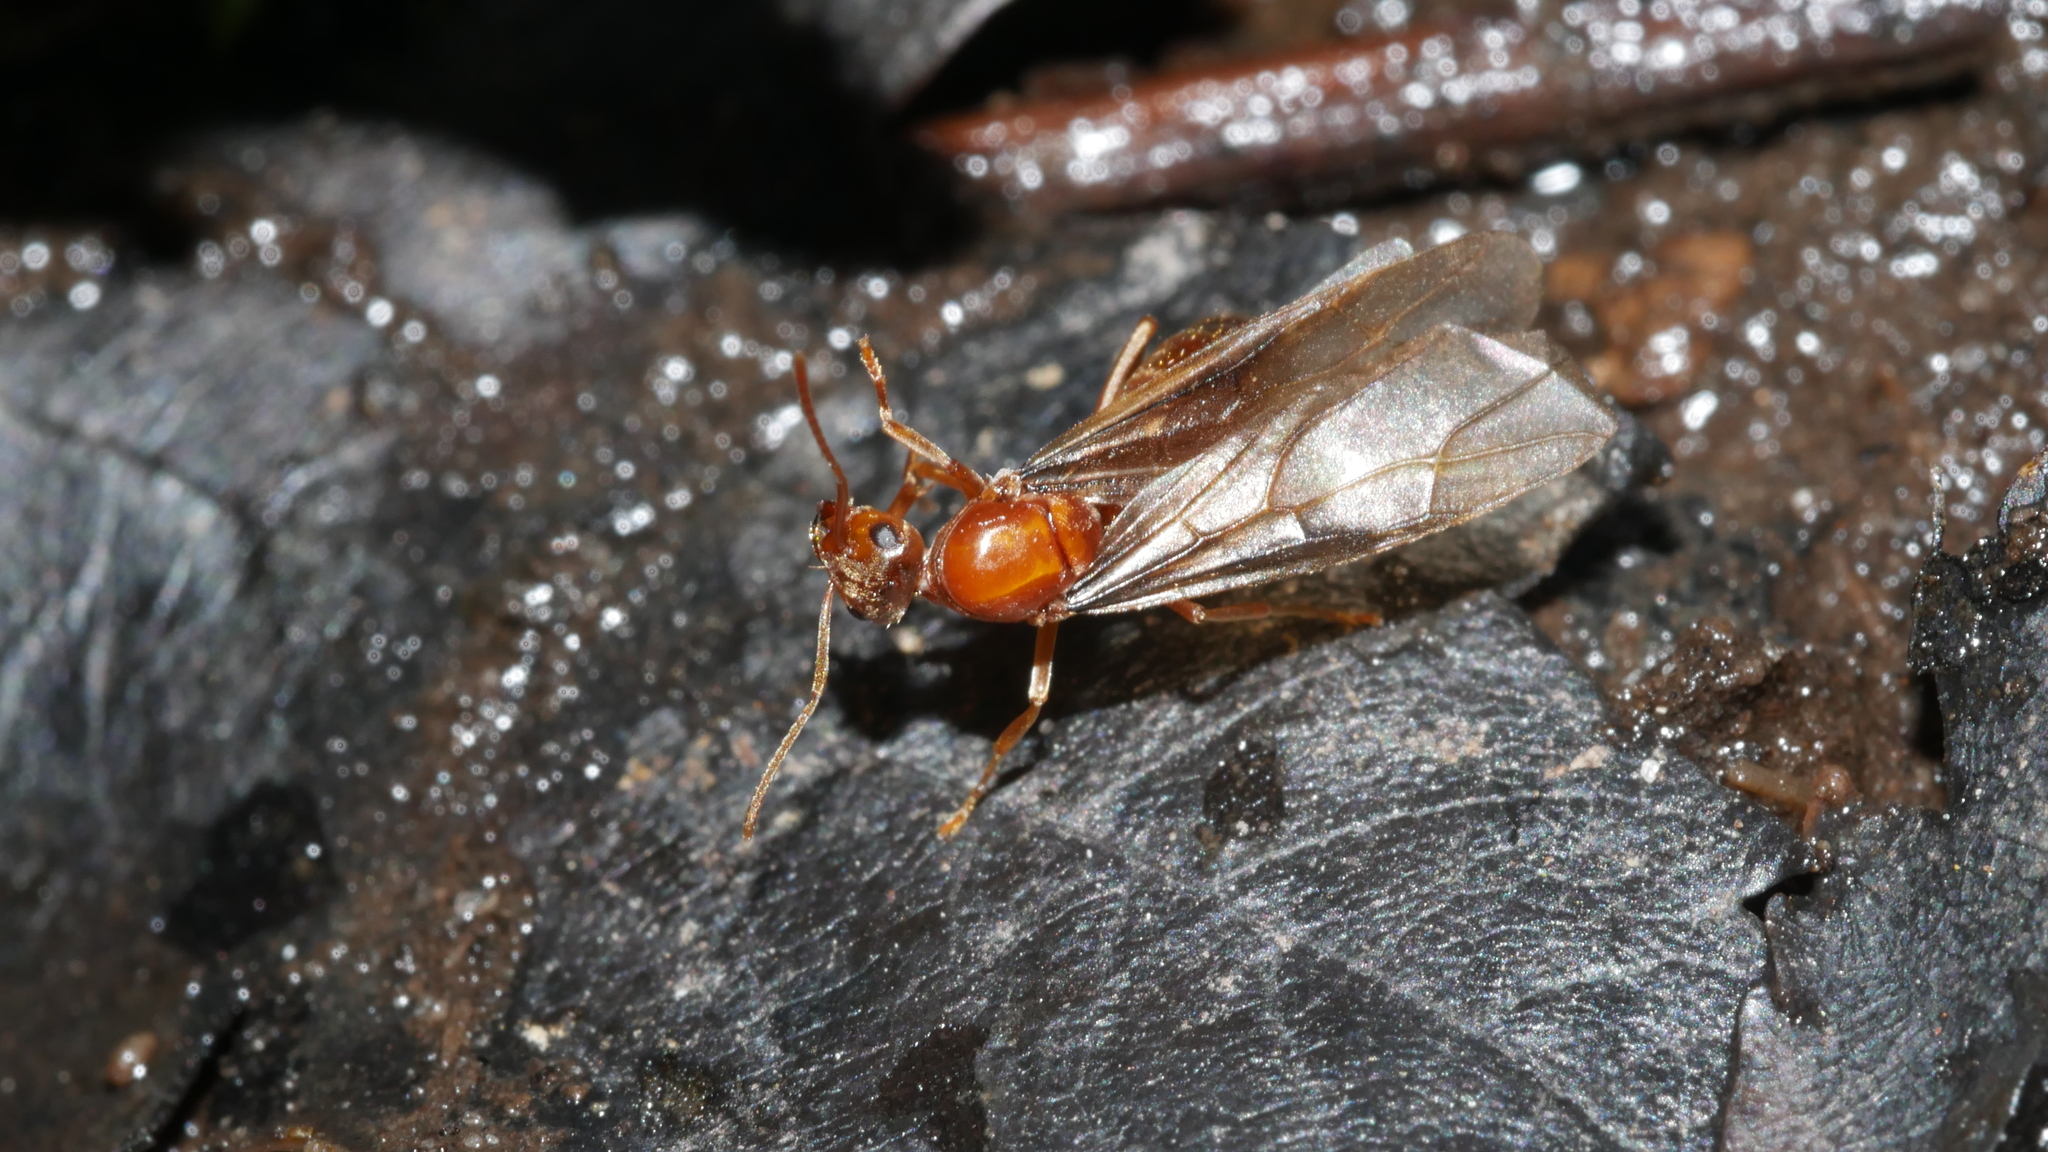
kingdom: Animalia
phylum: Arthropoda
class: Insecta
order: Hymenoptera
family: Formicidae
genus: Prenolepis
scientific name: Prenolepis imparis
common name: Small honey ant
